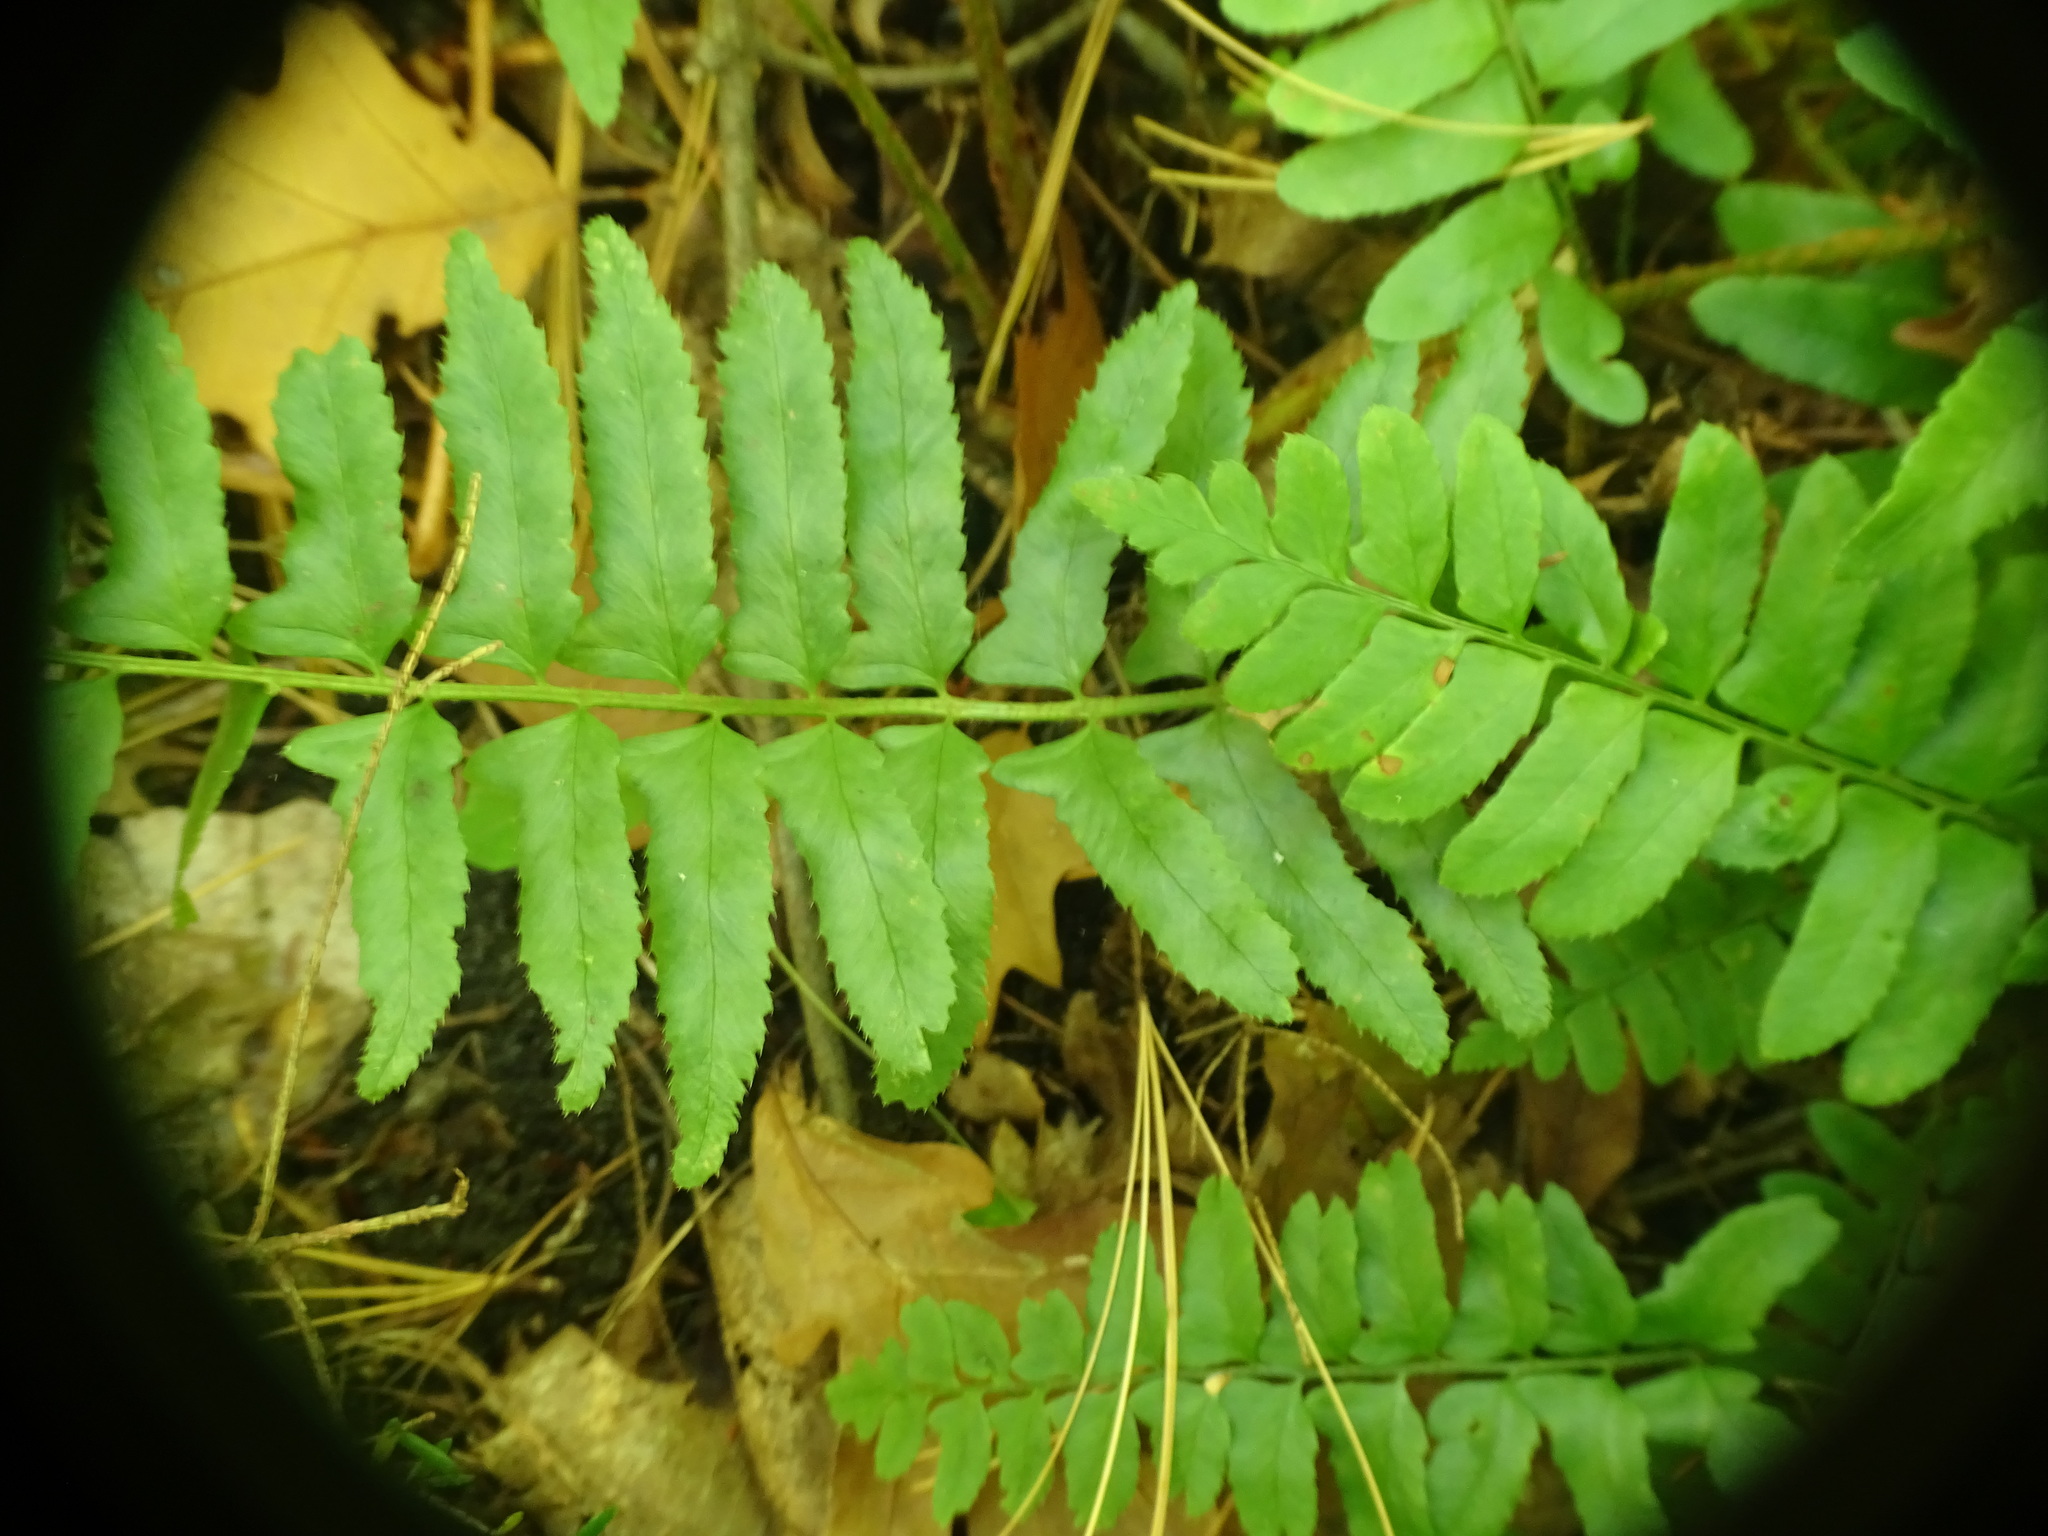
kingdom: Plantae
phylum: Tracheophyta
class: Polypodiopsida
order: Polypodiales
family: Dryopteridaceae
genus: Polystichum
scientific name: Polystichum acrostichoides
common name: Christmas fern
